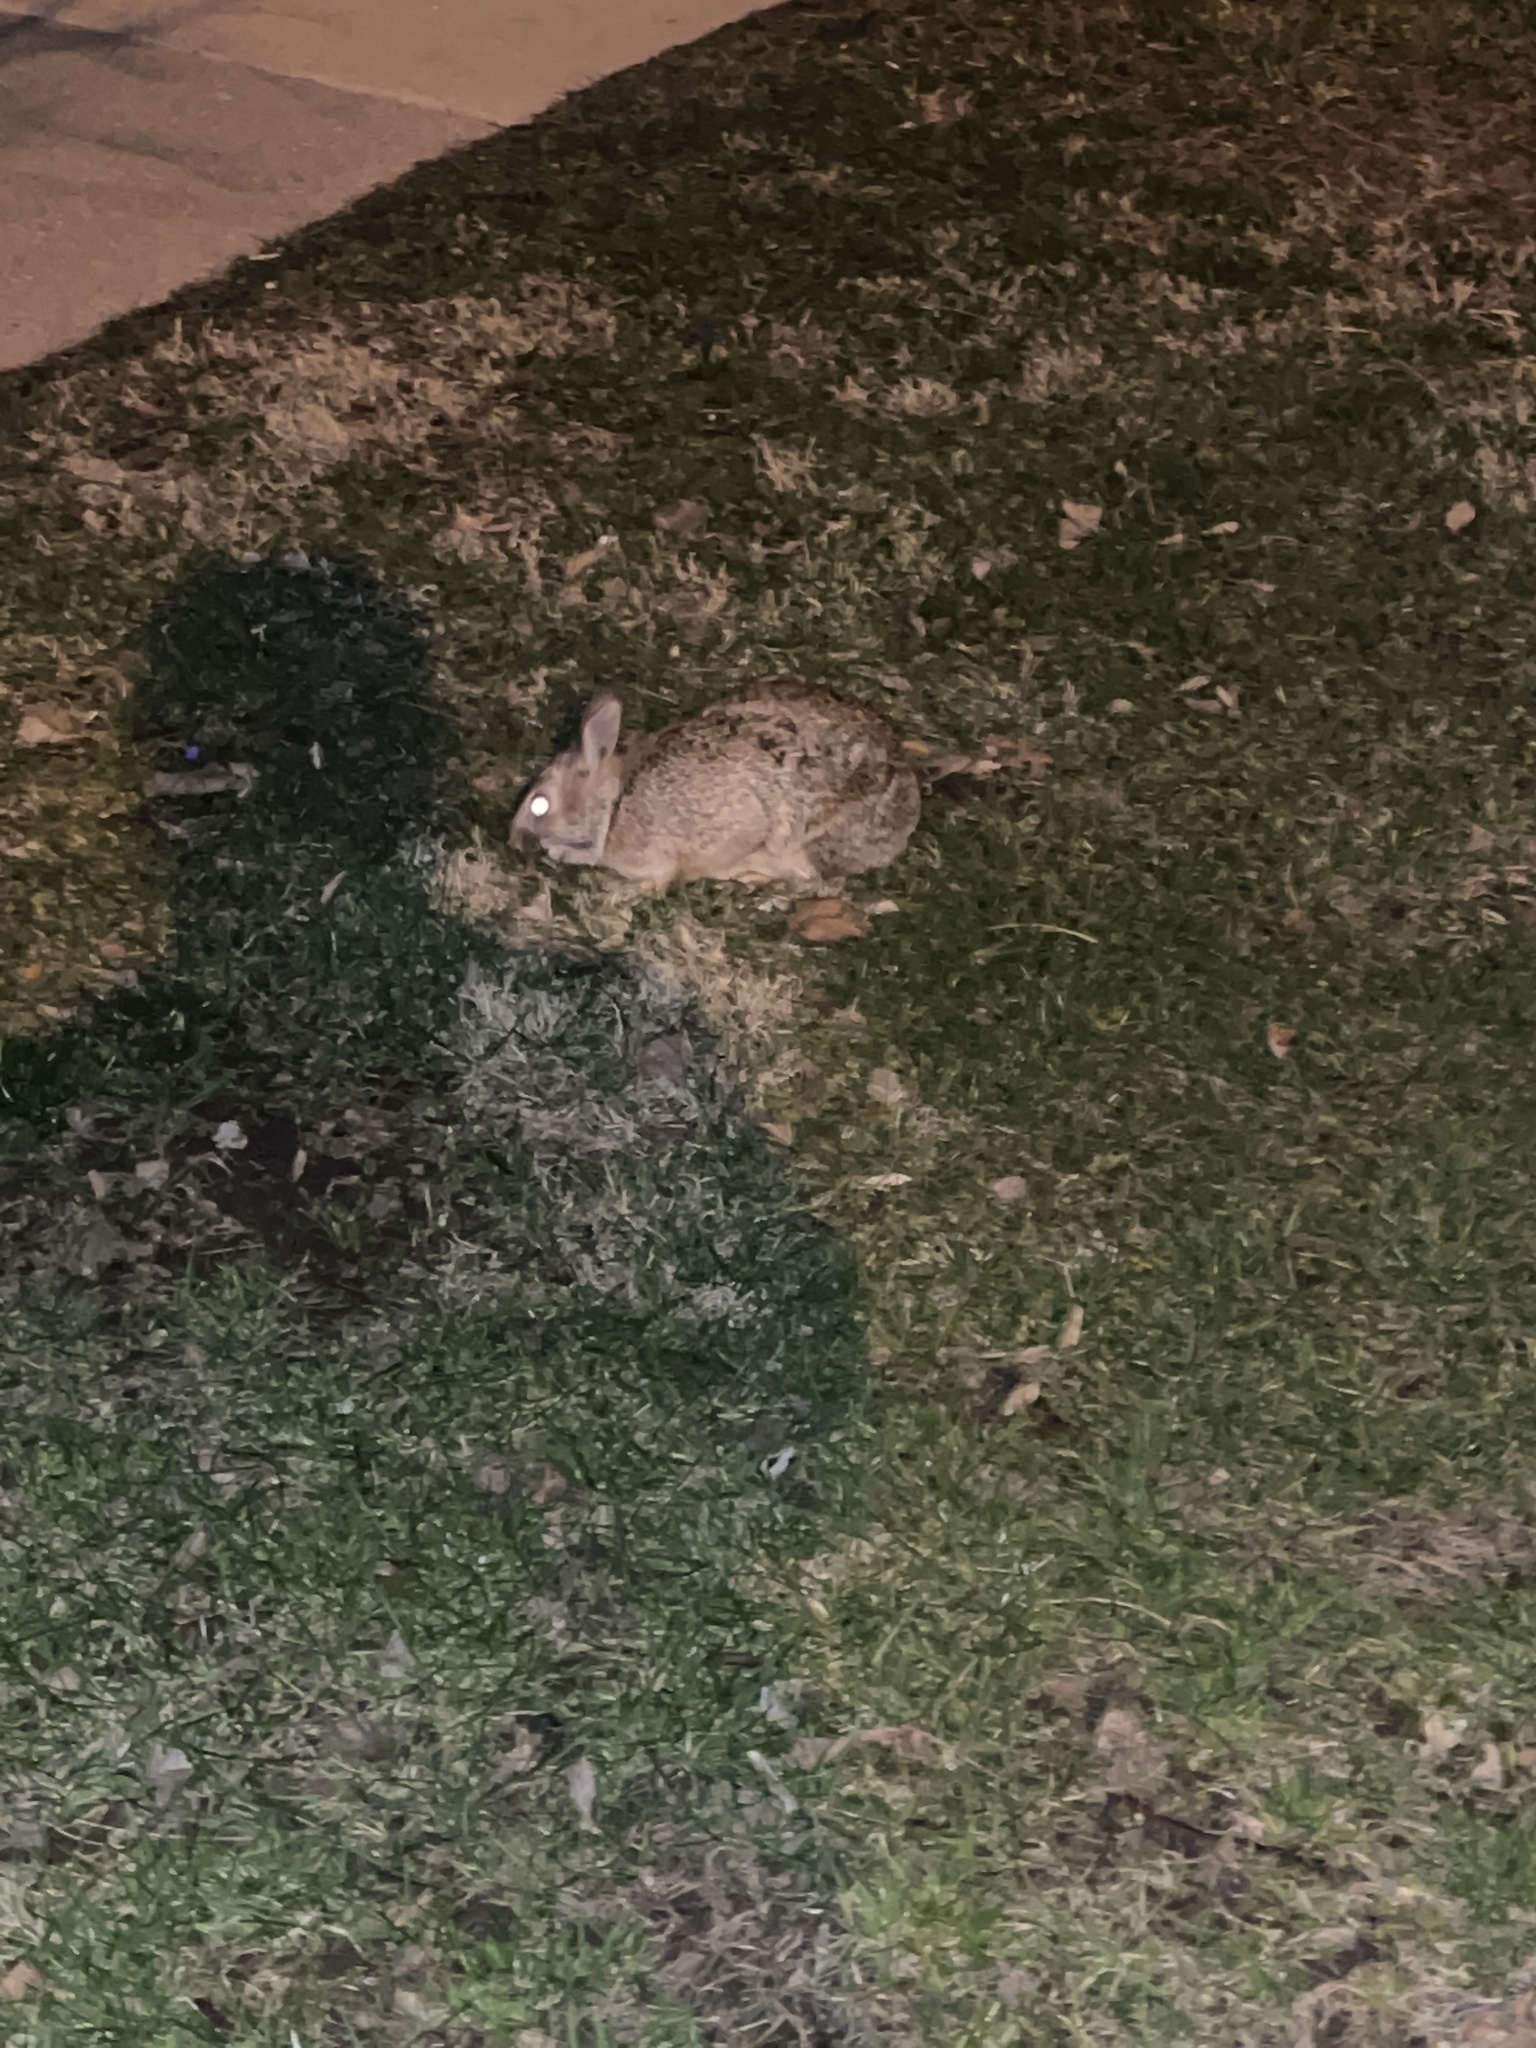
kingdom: Animalia
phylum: Chordata
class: Mammalia
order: Lagomorpha
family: Leporidae
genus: Sylvilagus
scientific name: Sylvilagus floridanus
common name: Eastern cottontail
